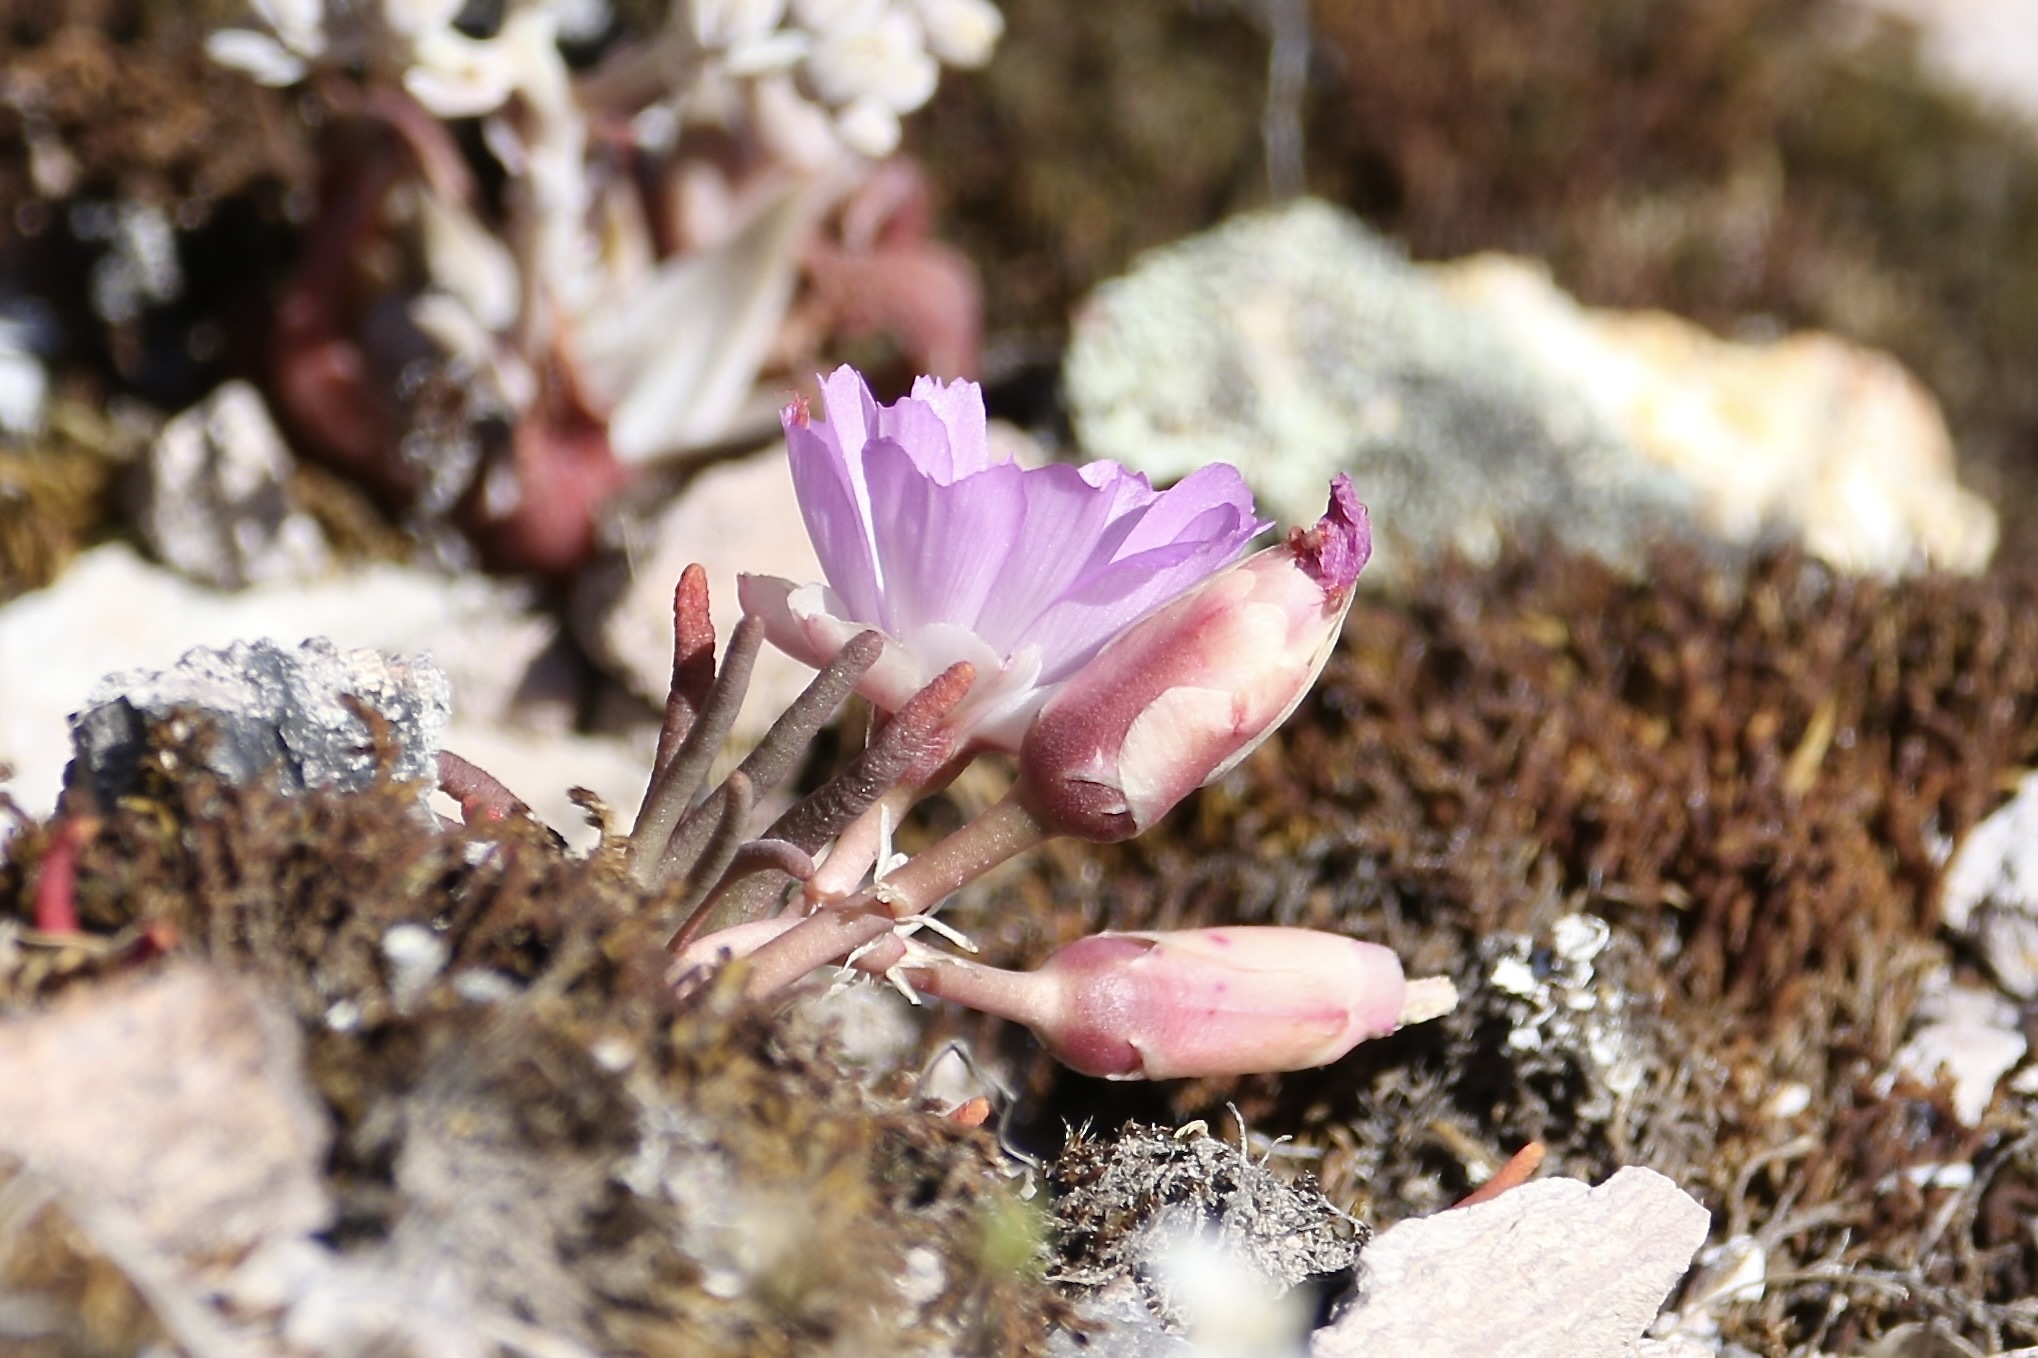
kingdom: Plantae
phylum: Tracheophyta
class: Magnoliopsida
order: Caryophyllales
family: Montiaceae
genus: Lewisia
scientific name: Lewisia rediviva
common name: Bitter-root
